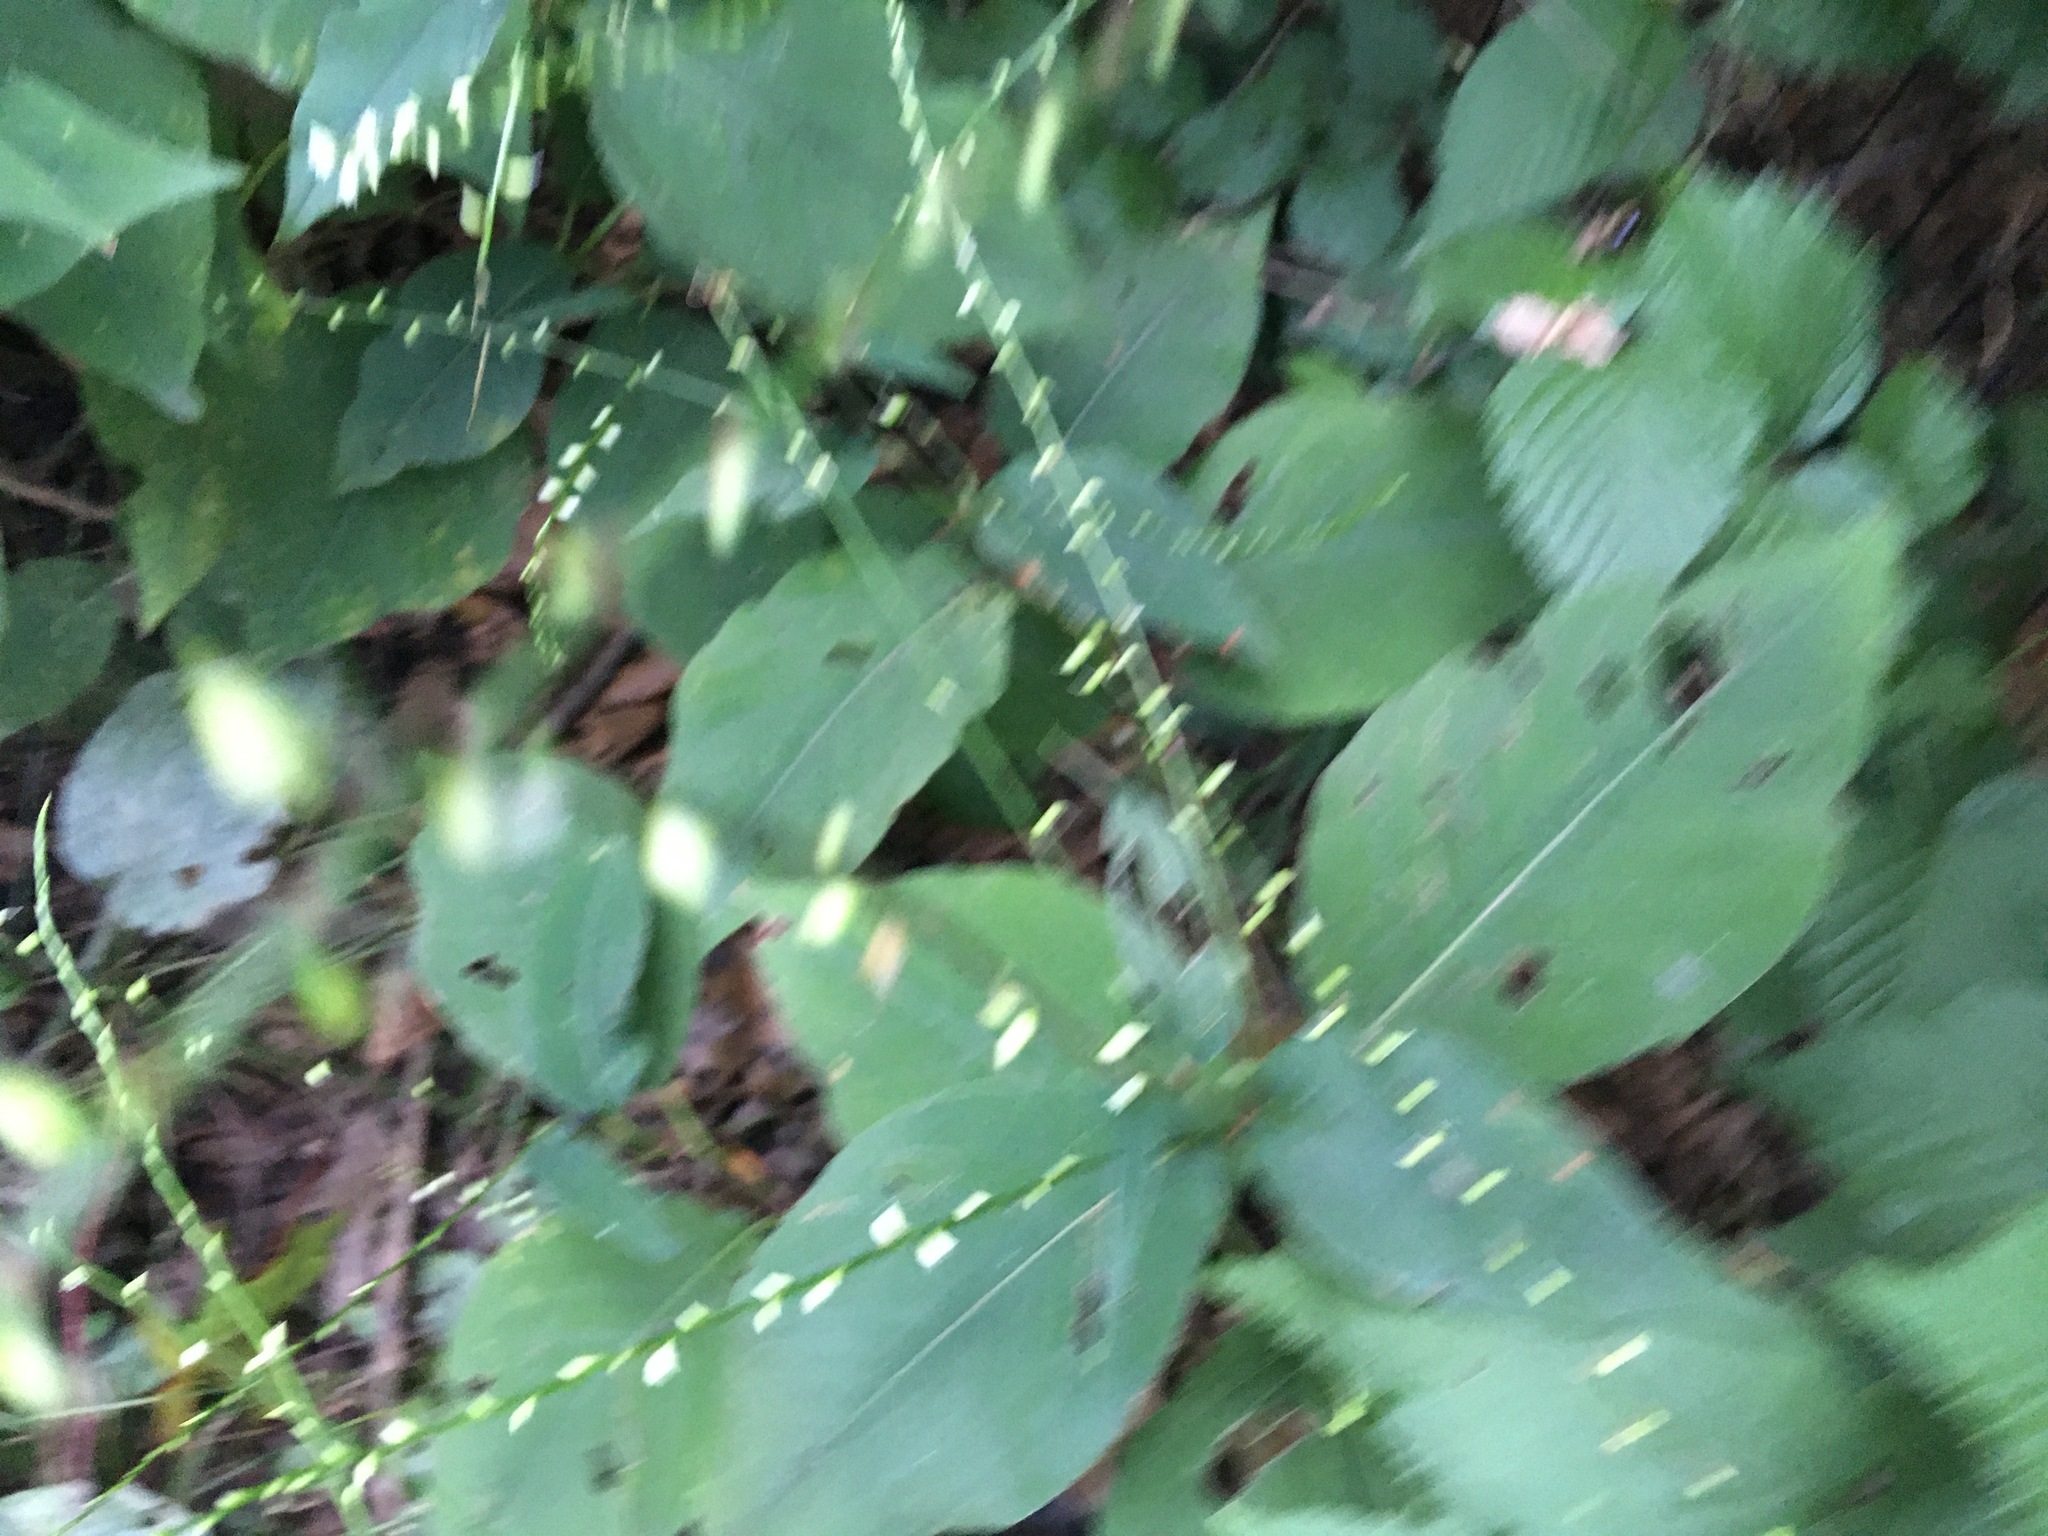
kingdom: Plantae
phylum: Tracheophyta
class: Magnoliopsida
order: Caryophyllales
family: Polygonaceae
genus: Persicaria
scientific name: Persicaria virginiana
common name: Jumpseed
